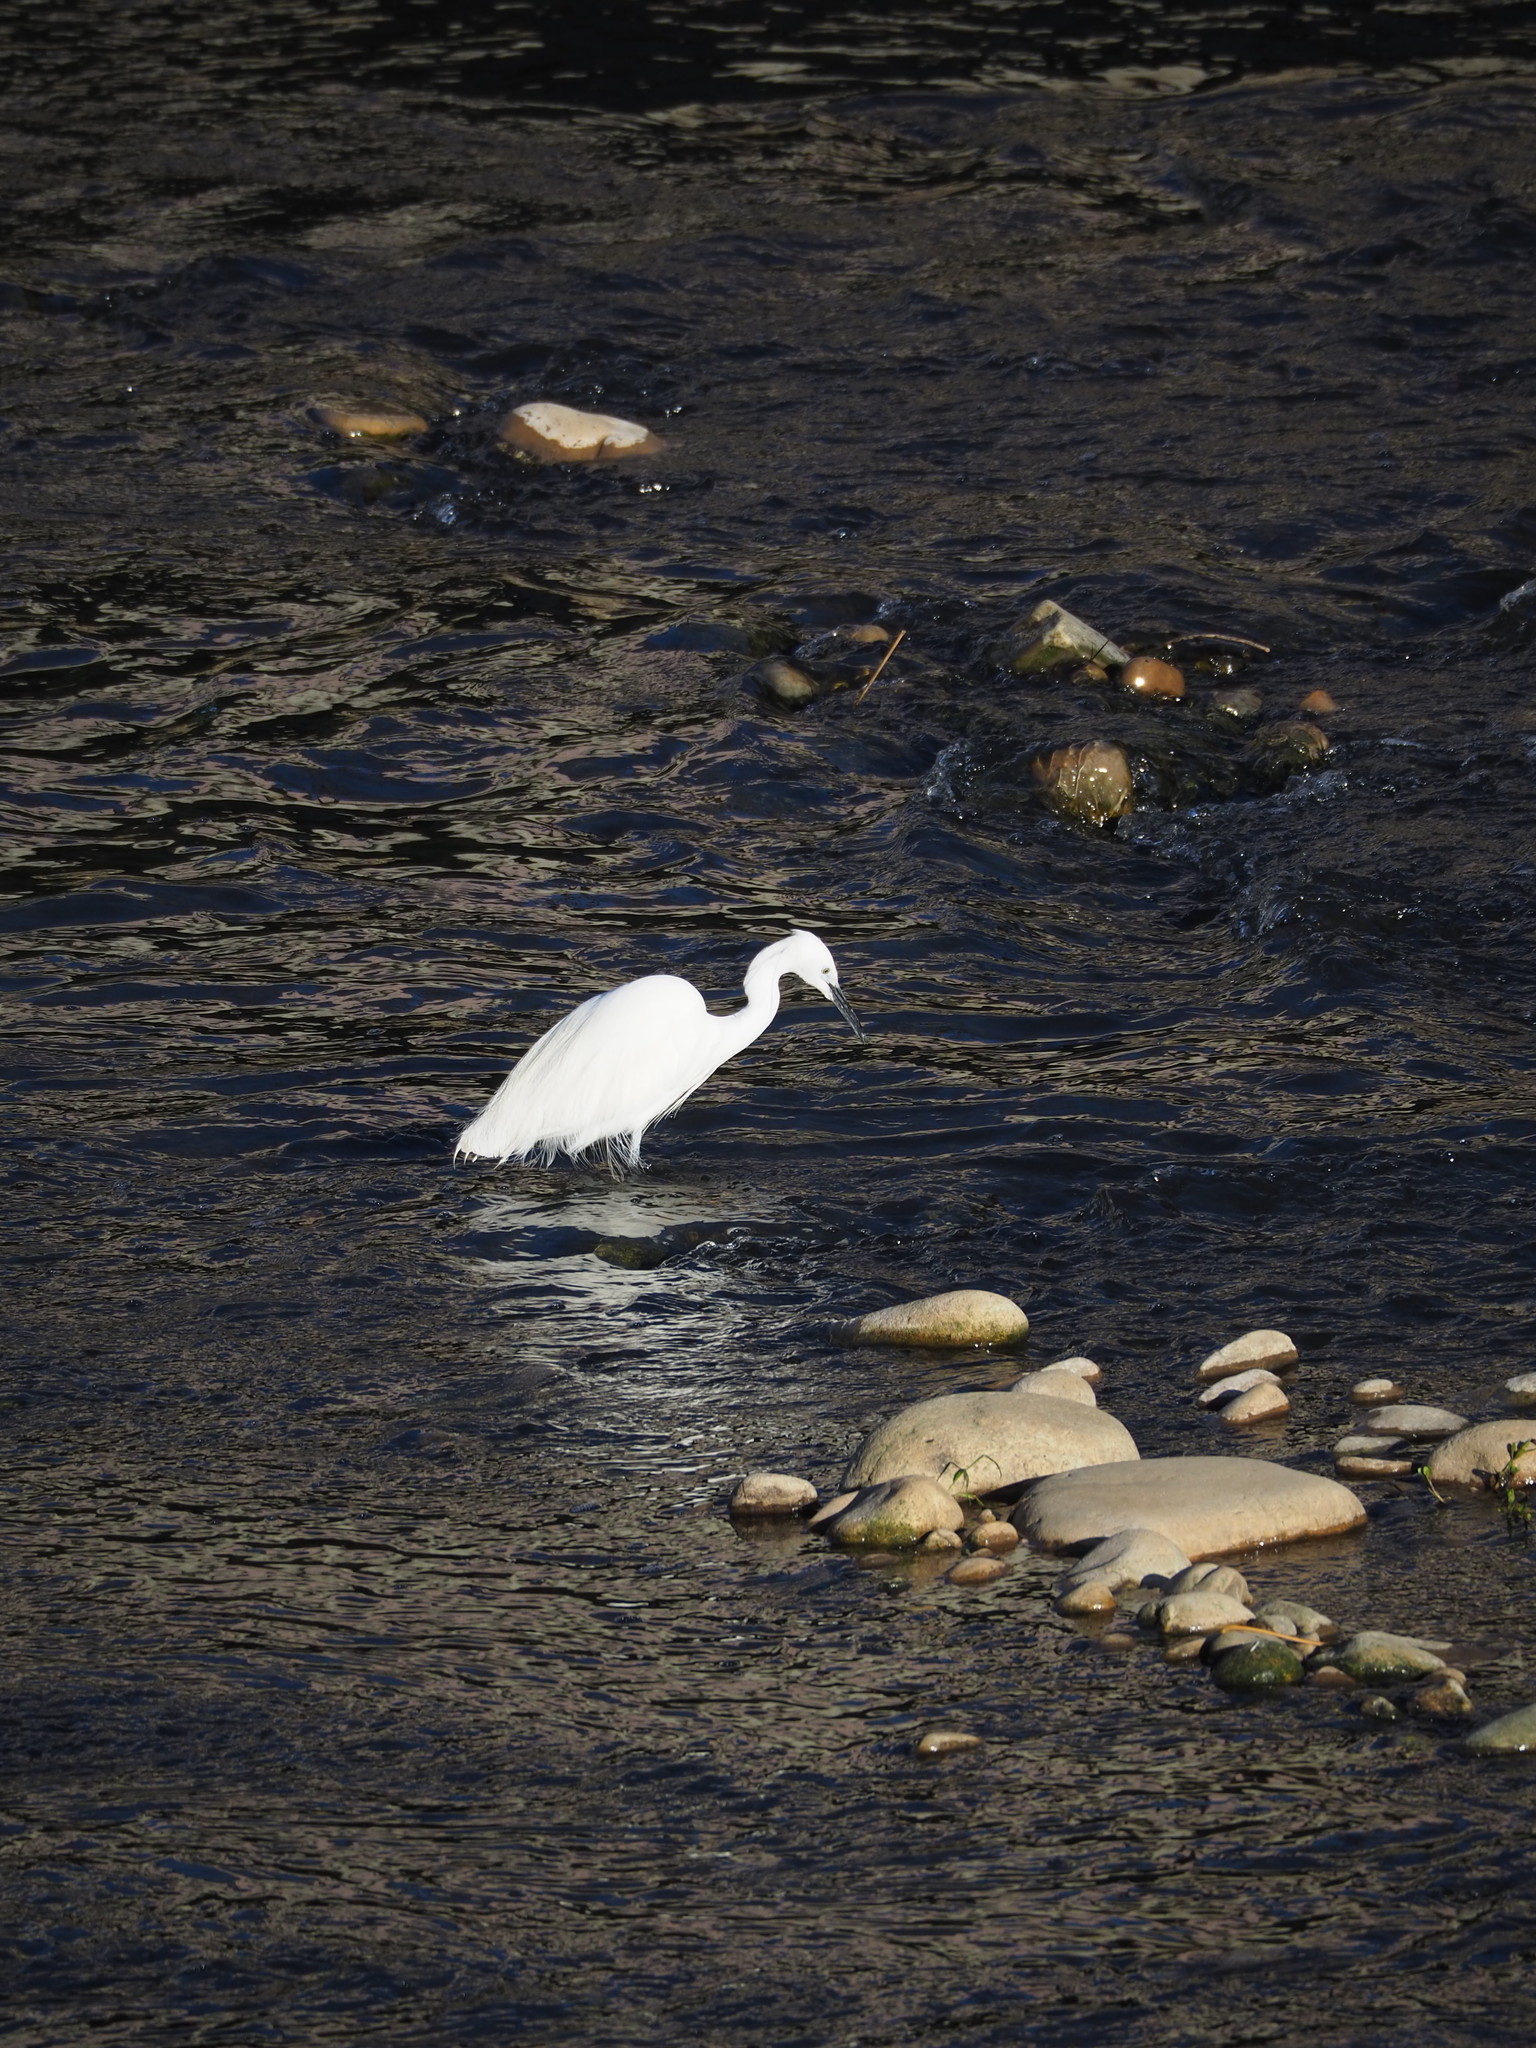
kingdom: Animalia
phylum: Chordata
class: Aves
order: Pelecaniformes
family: Ardeidae
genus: Egretta
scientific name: Egretta garzetta
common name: Little egret
